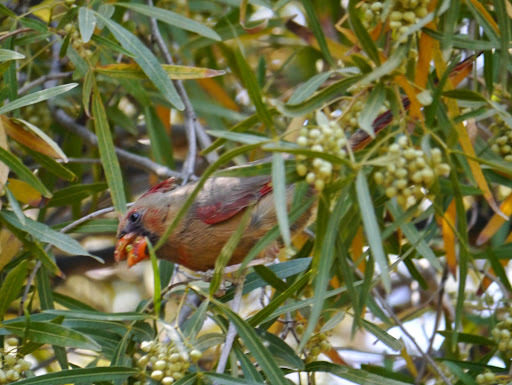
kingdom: Animalia
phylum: Chordata
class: Aves
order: Passeriformes
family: Cardinalidae
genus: Cardinalis
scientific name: Cardinalis cardinalis
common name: Northern cardinal
